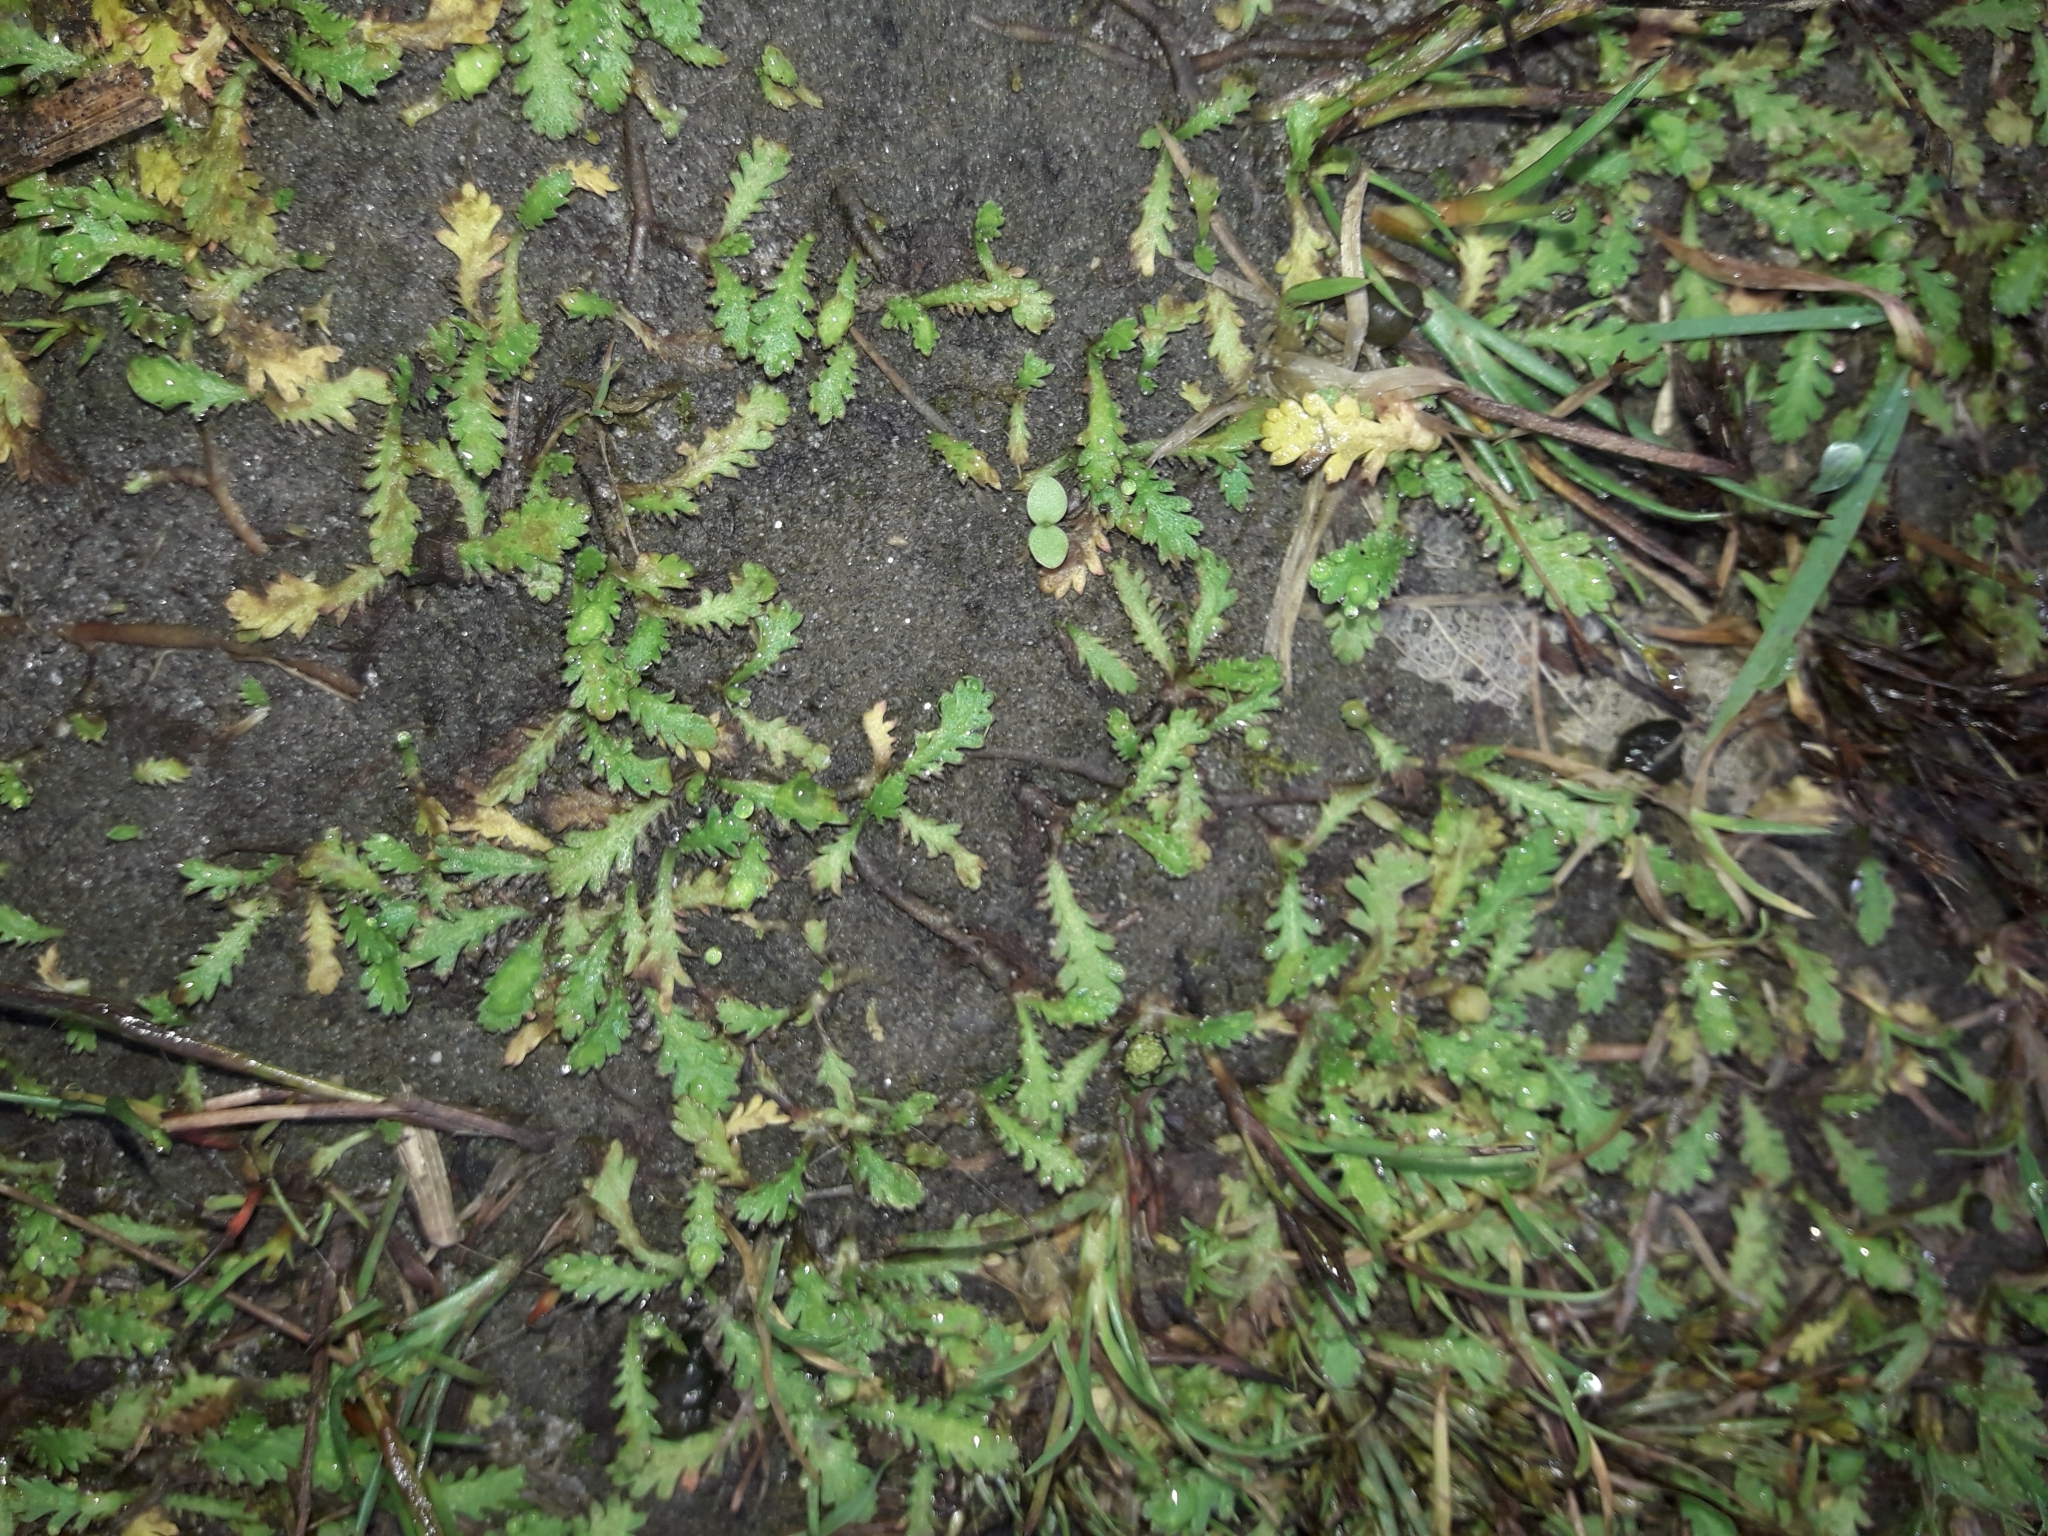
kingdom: Plantae
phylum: Tracheophyta
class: Magnoliopsida
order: Asterales
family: Asteraceae
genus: Leptinella
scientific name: Leptinella dioica
